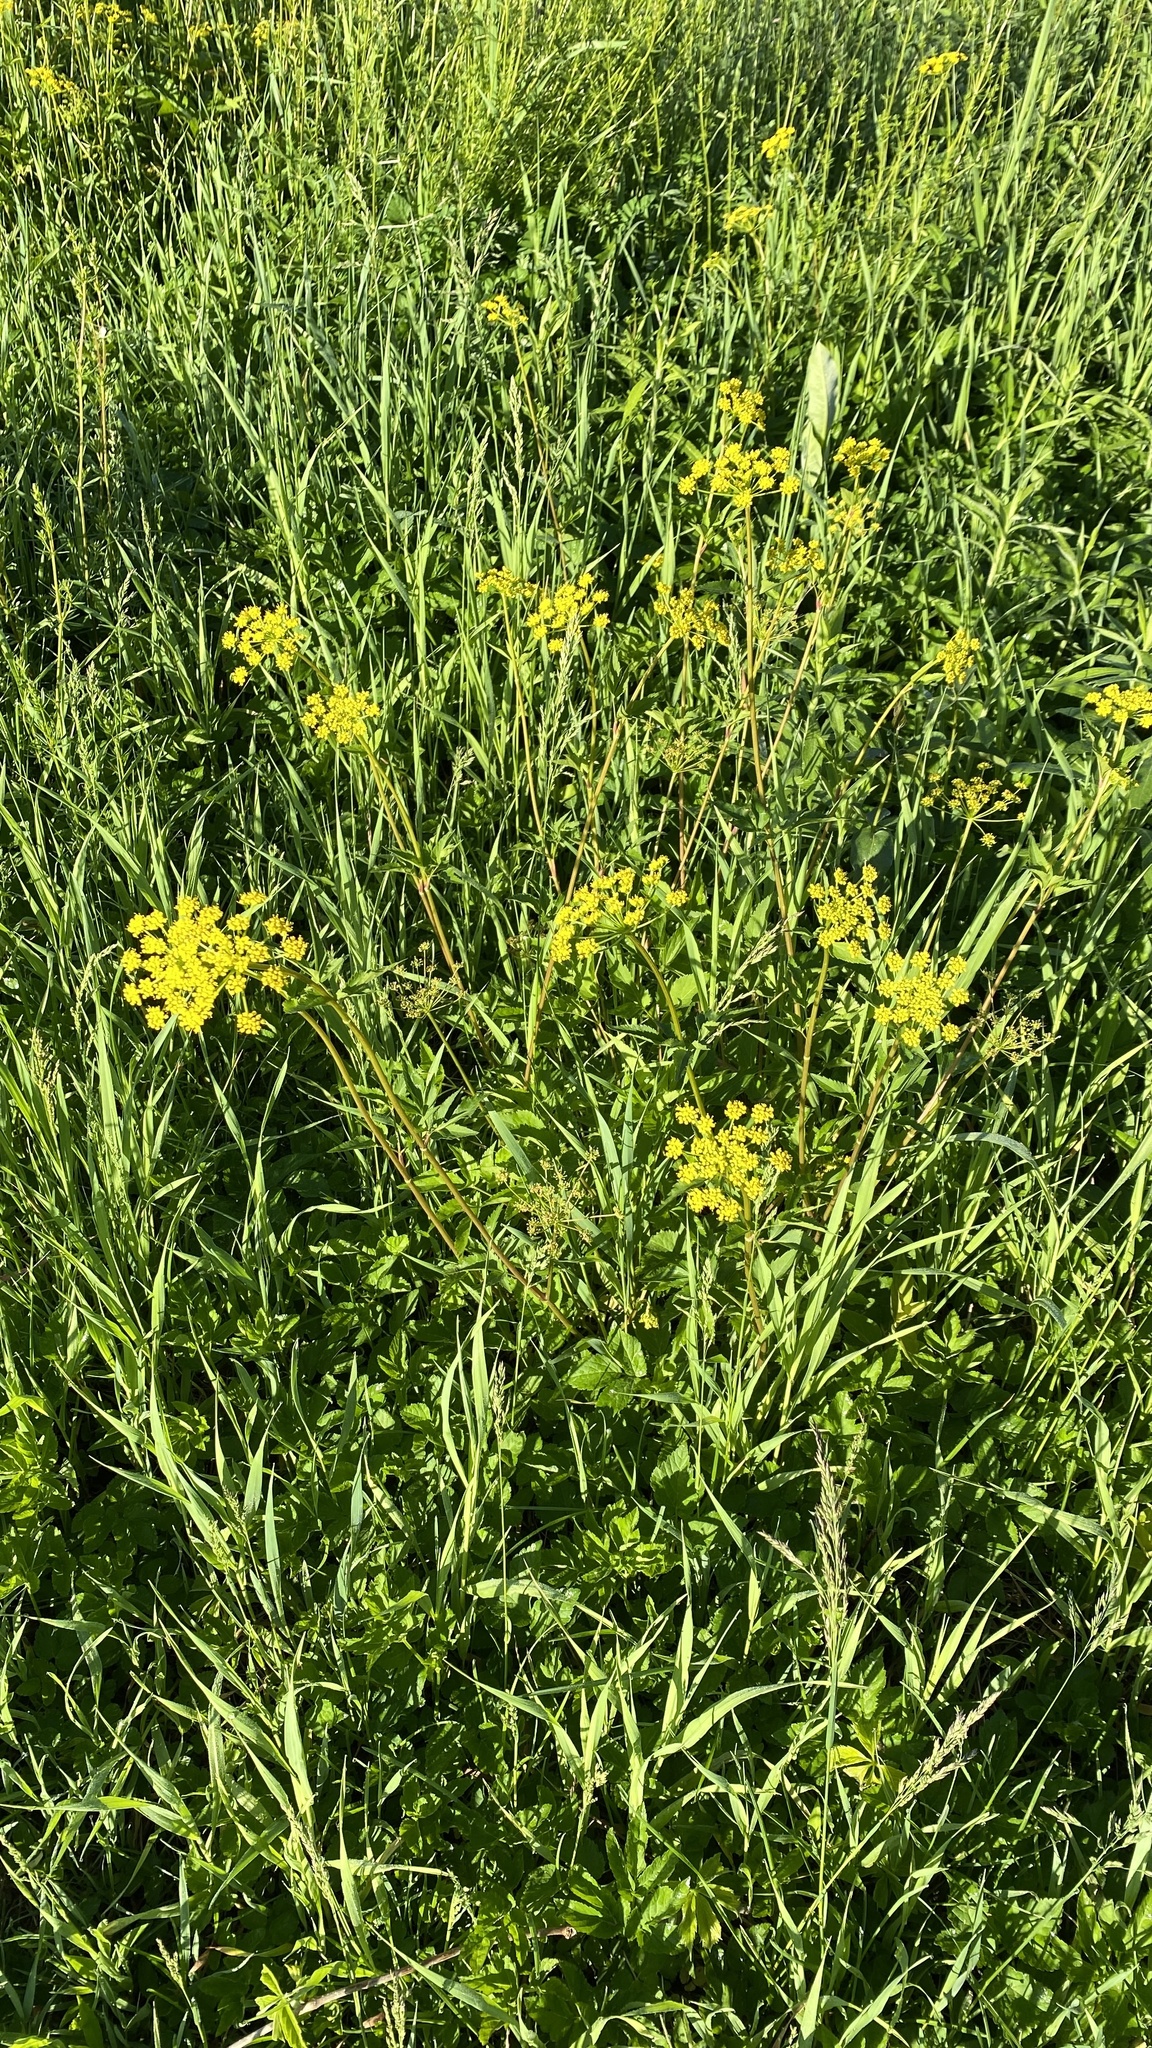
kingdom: Plantae
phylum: Tracheophyta
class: Magnoliopsida
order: Apiales
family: Apiaceae
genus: Zizia
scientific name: Zizia aurea
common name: Golden alexanders
